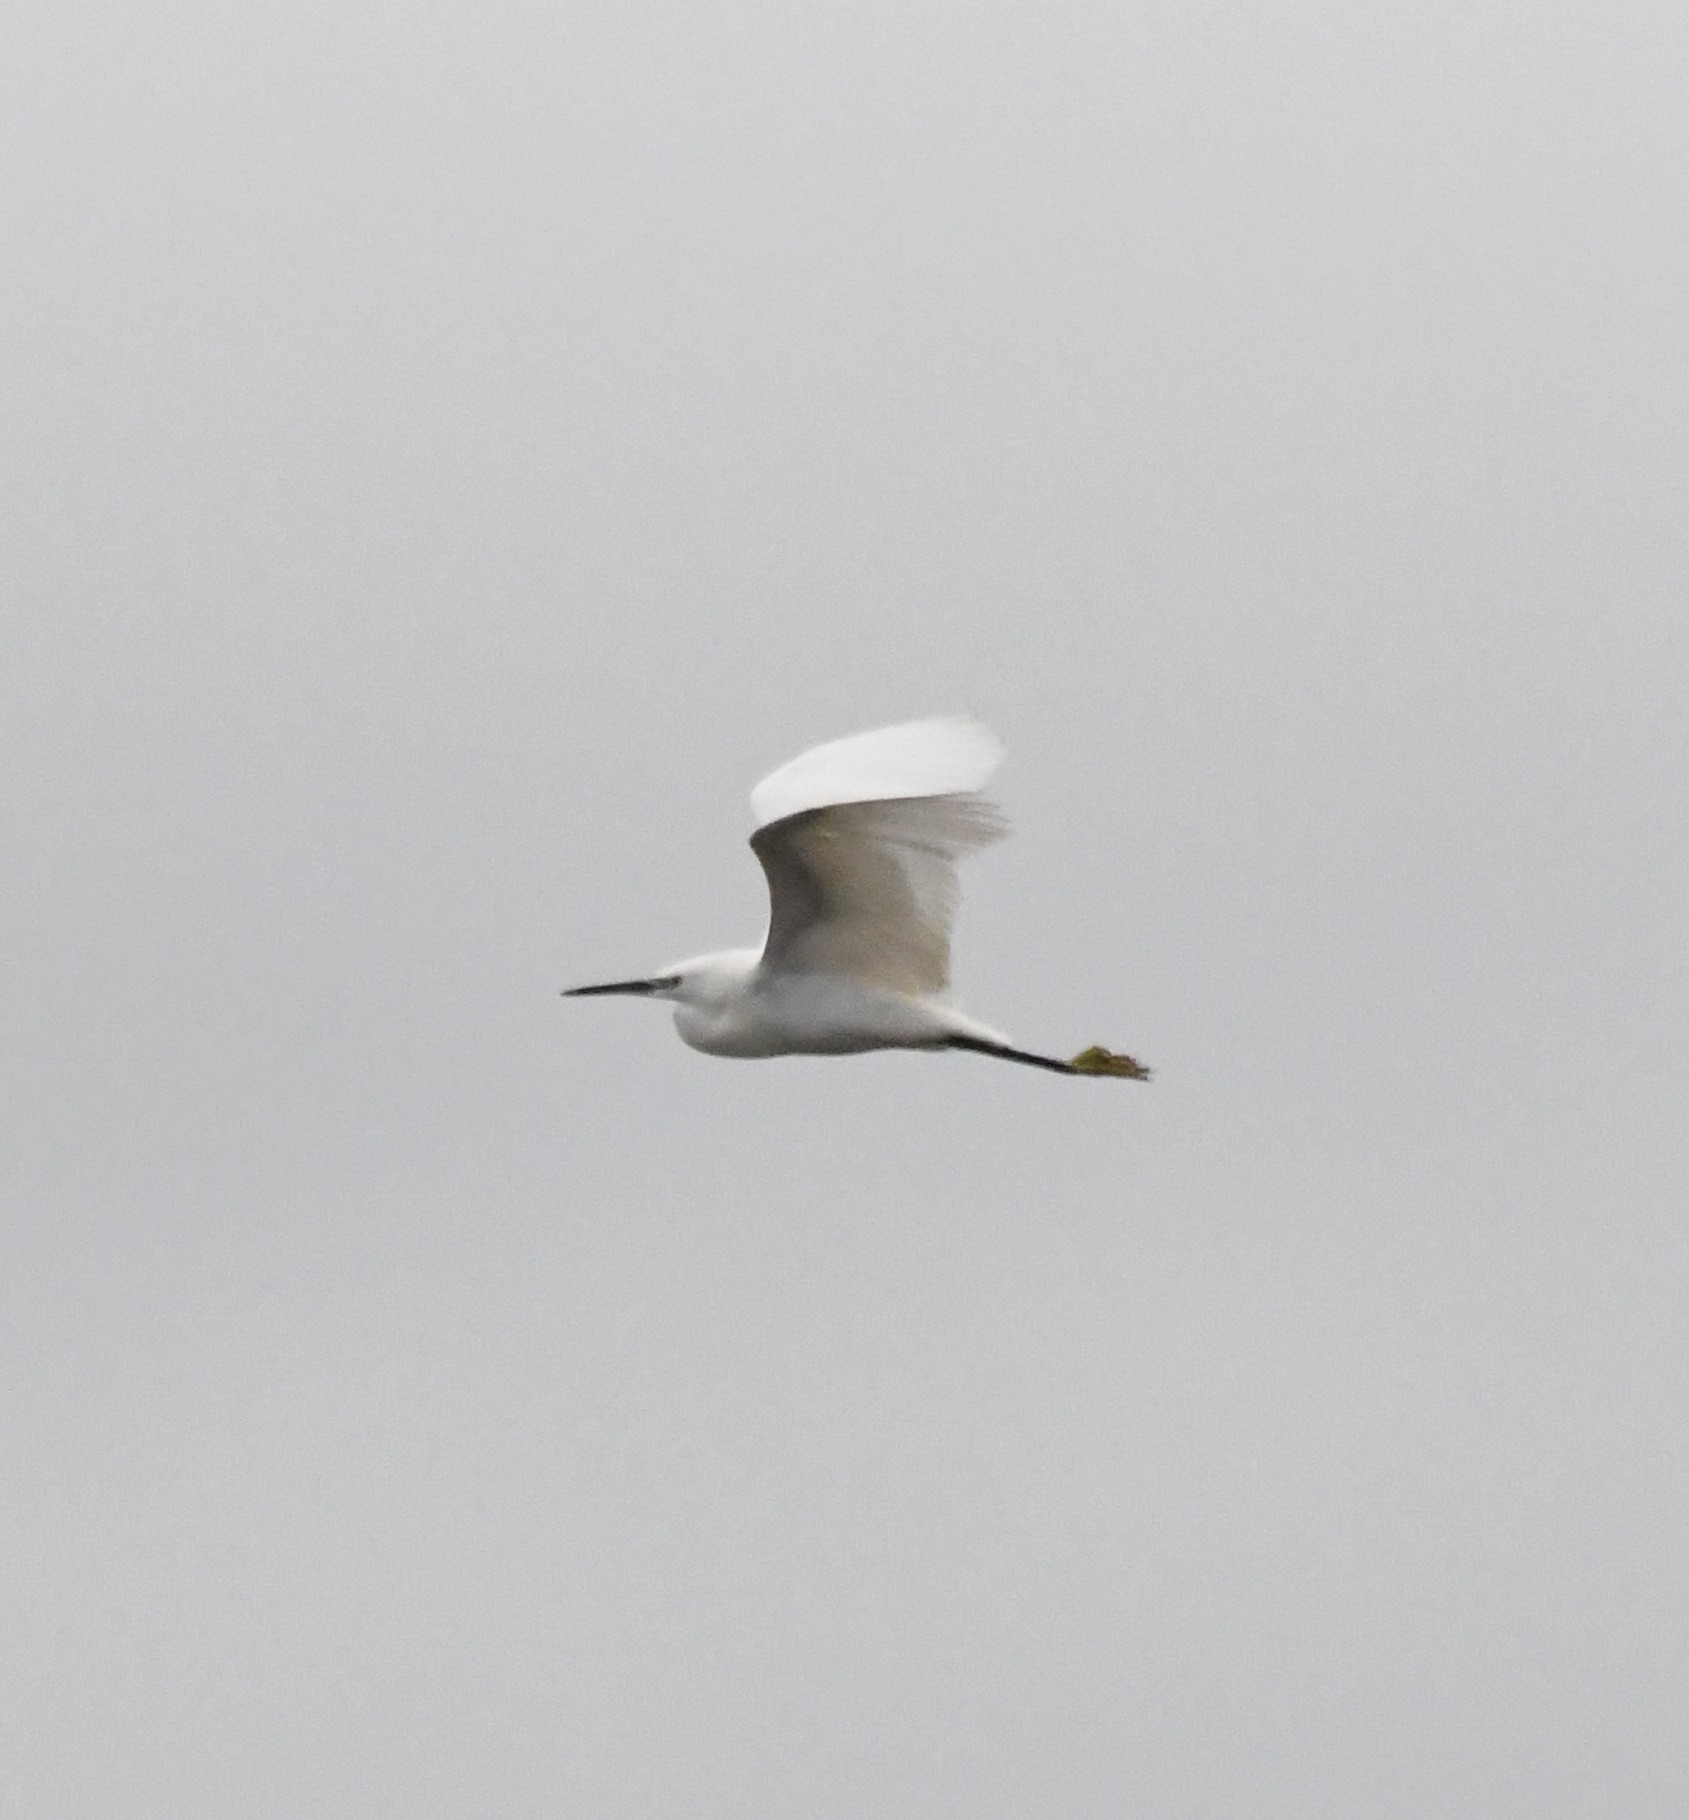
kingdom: Animalia
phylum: Chordata
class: Aves
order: Pelecaniformes
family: Ardeidae
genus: Egretta
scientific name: Egretta garzetta
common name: Little egret
